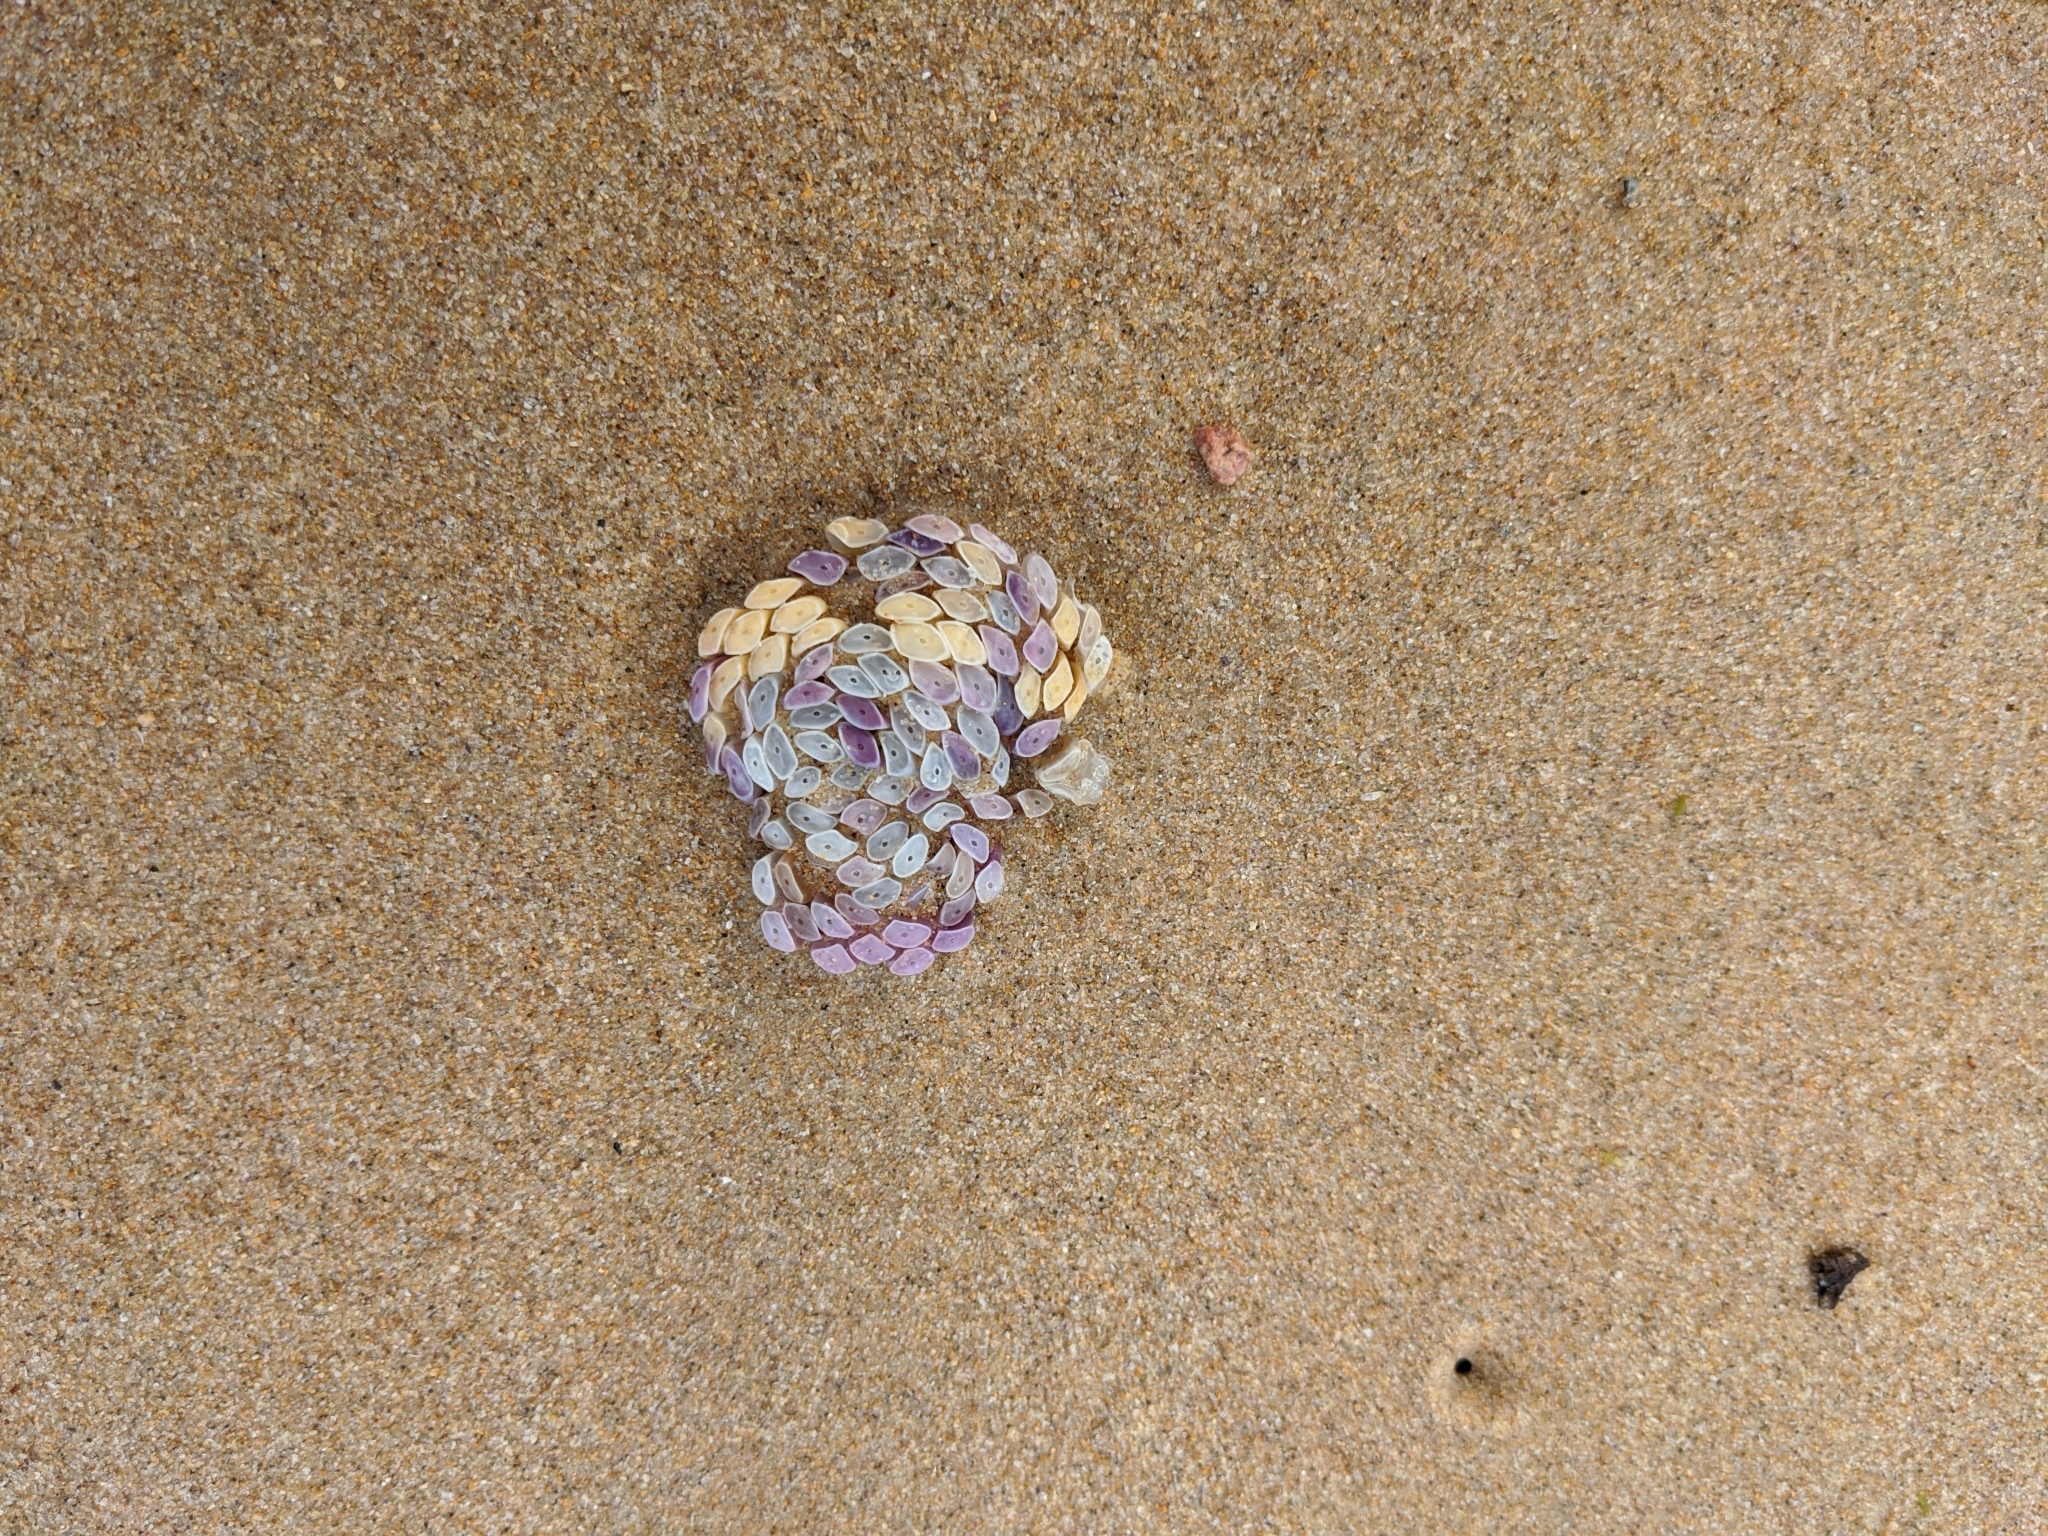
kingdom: Animalia
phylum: Mollusca
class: Gastropoda
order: Neogastropoda
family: Muricidae
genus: Dicathais
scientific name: Dicathais orbita
